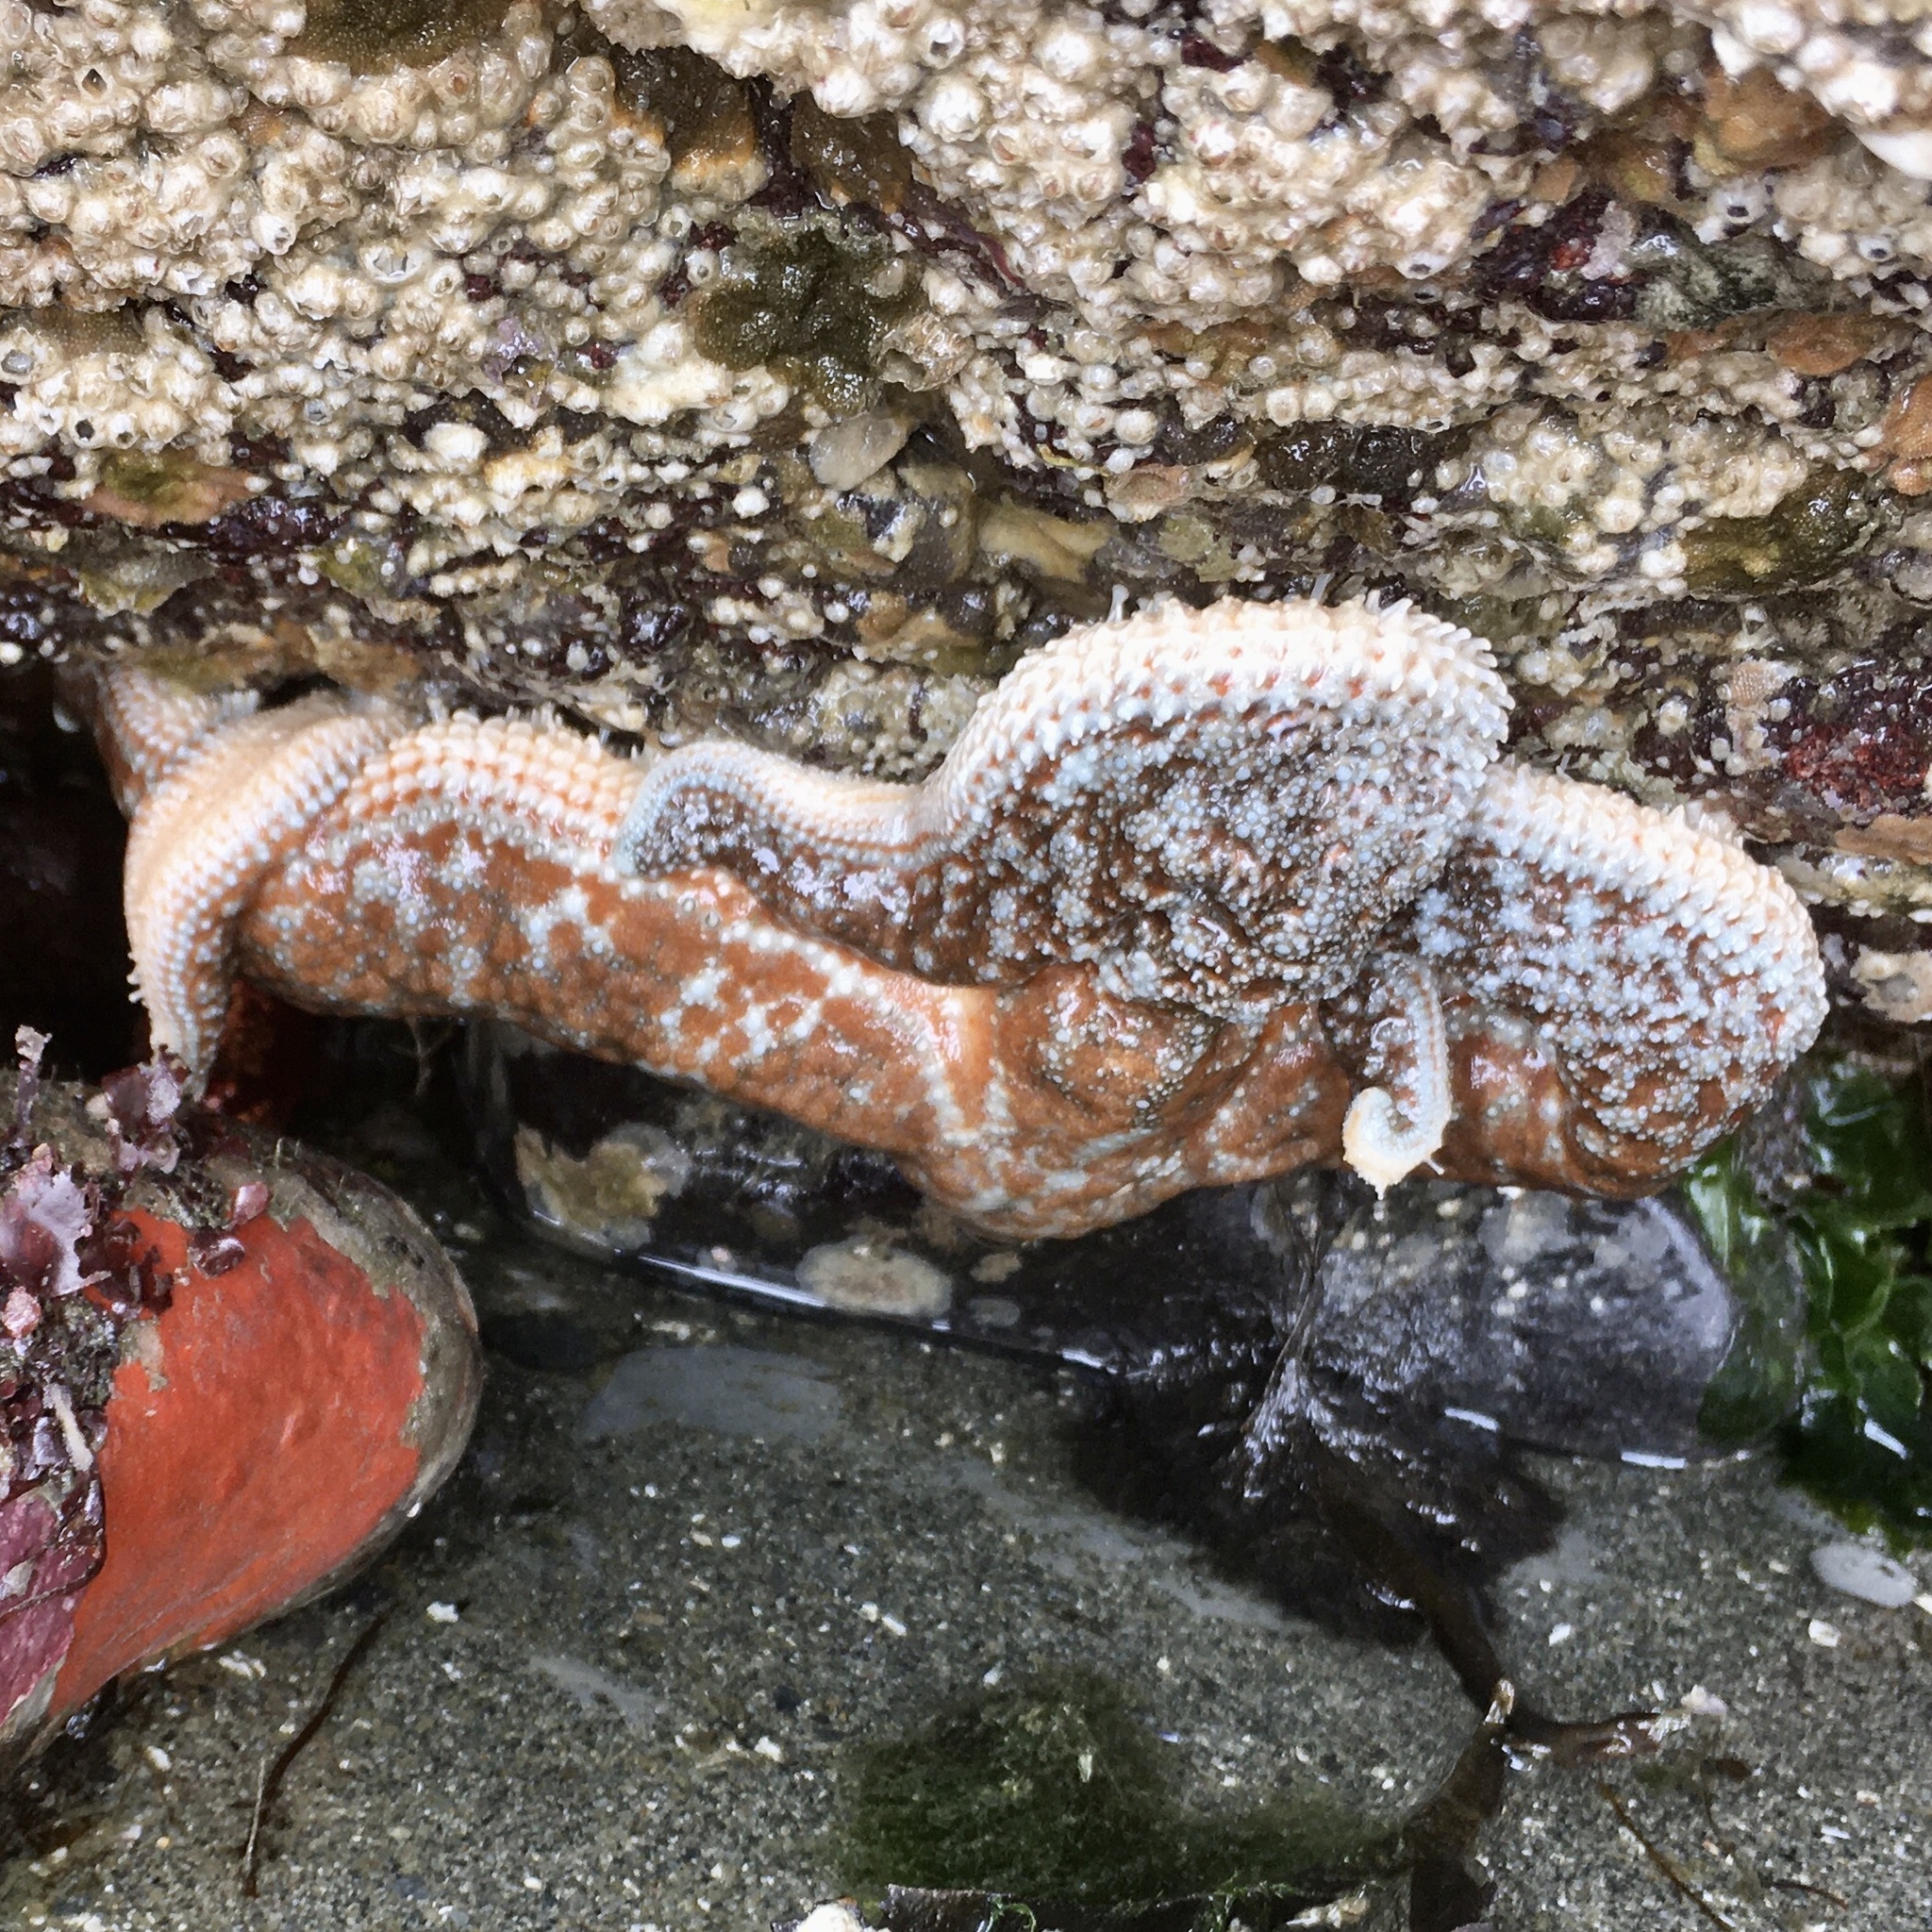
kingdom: Animalia
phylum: Echinodermata
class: Asteroidea
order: Forcipulatida
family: Asteriidae
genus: Evasterias
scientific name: Evasterias troschelii
